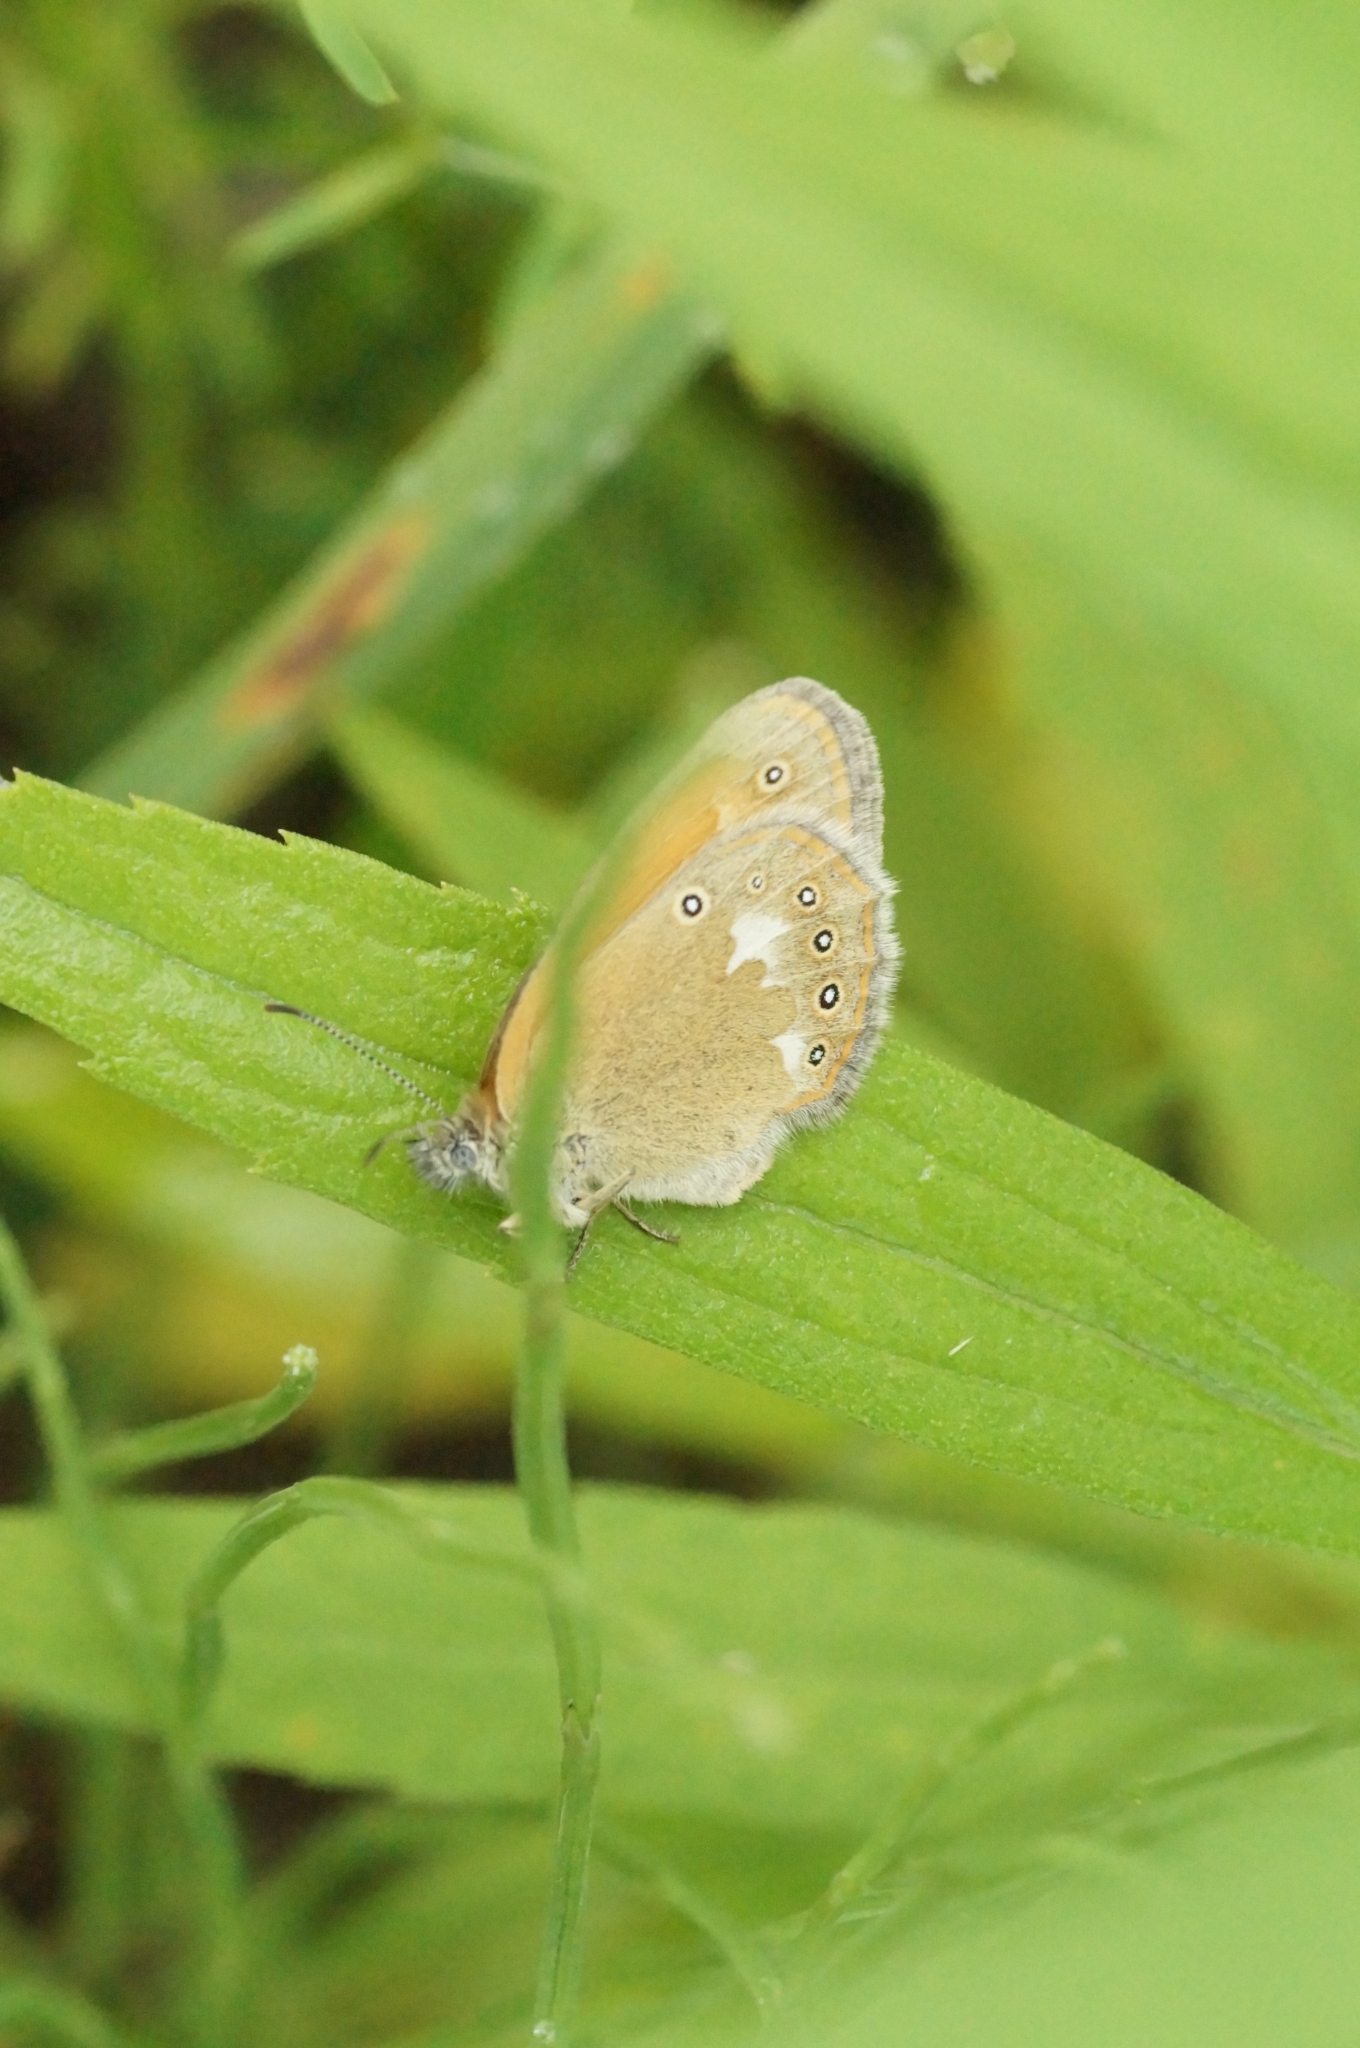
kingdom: Animalia
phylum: Arthropoda
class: Insecta
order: Lepidoptera
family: Nymphalidae
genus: Coenonympha
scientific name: Coenonympha iphis
